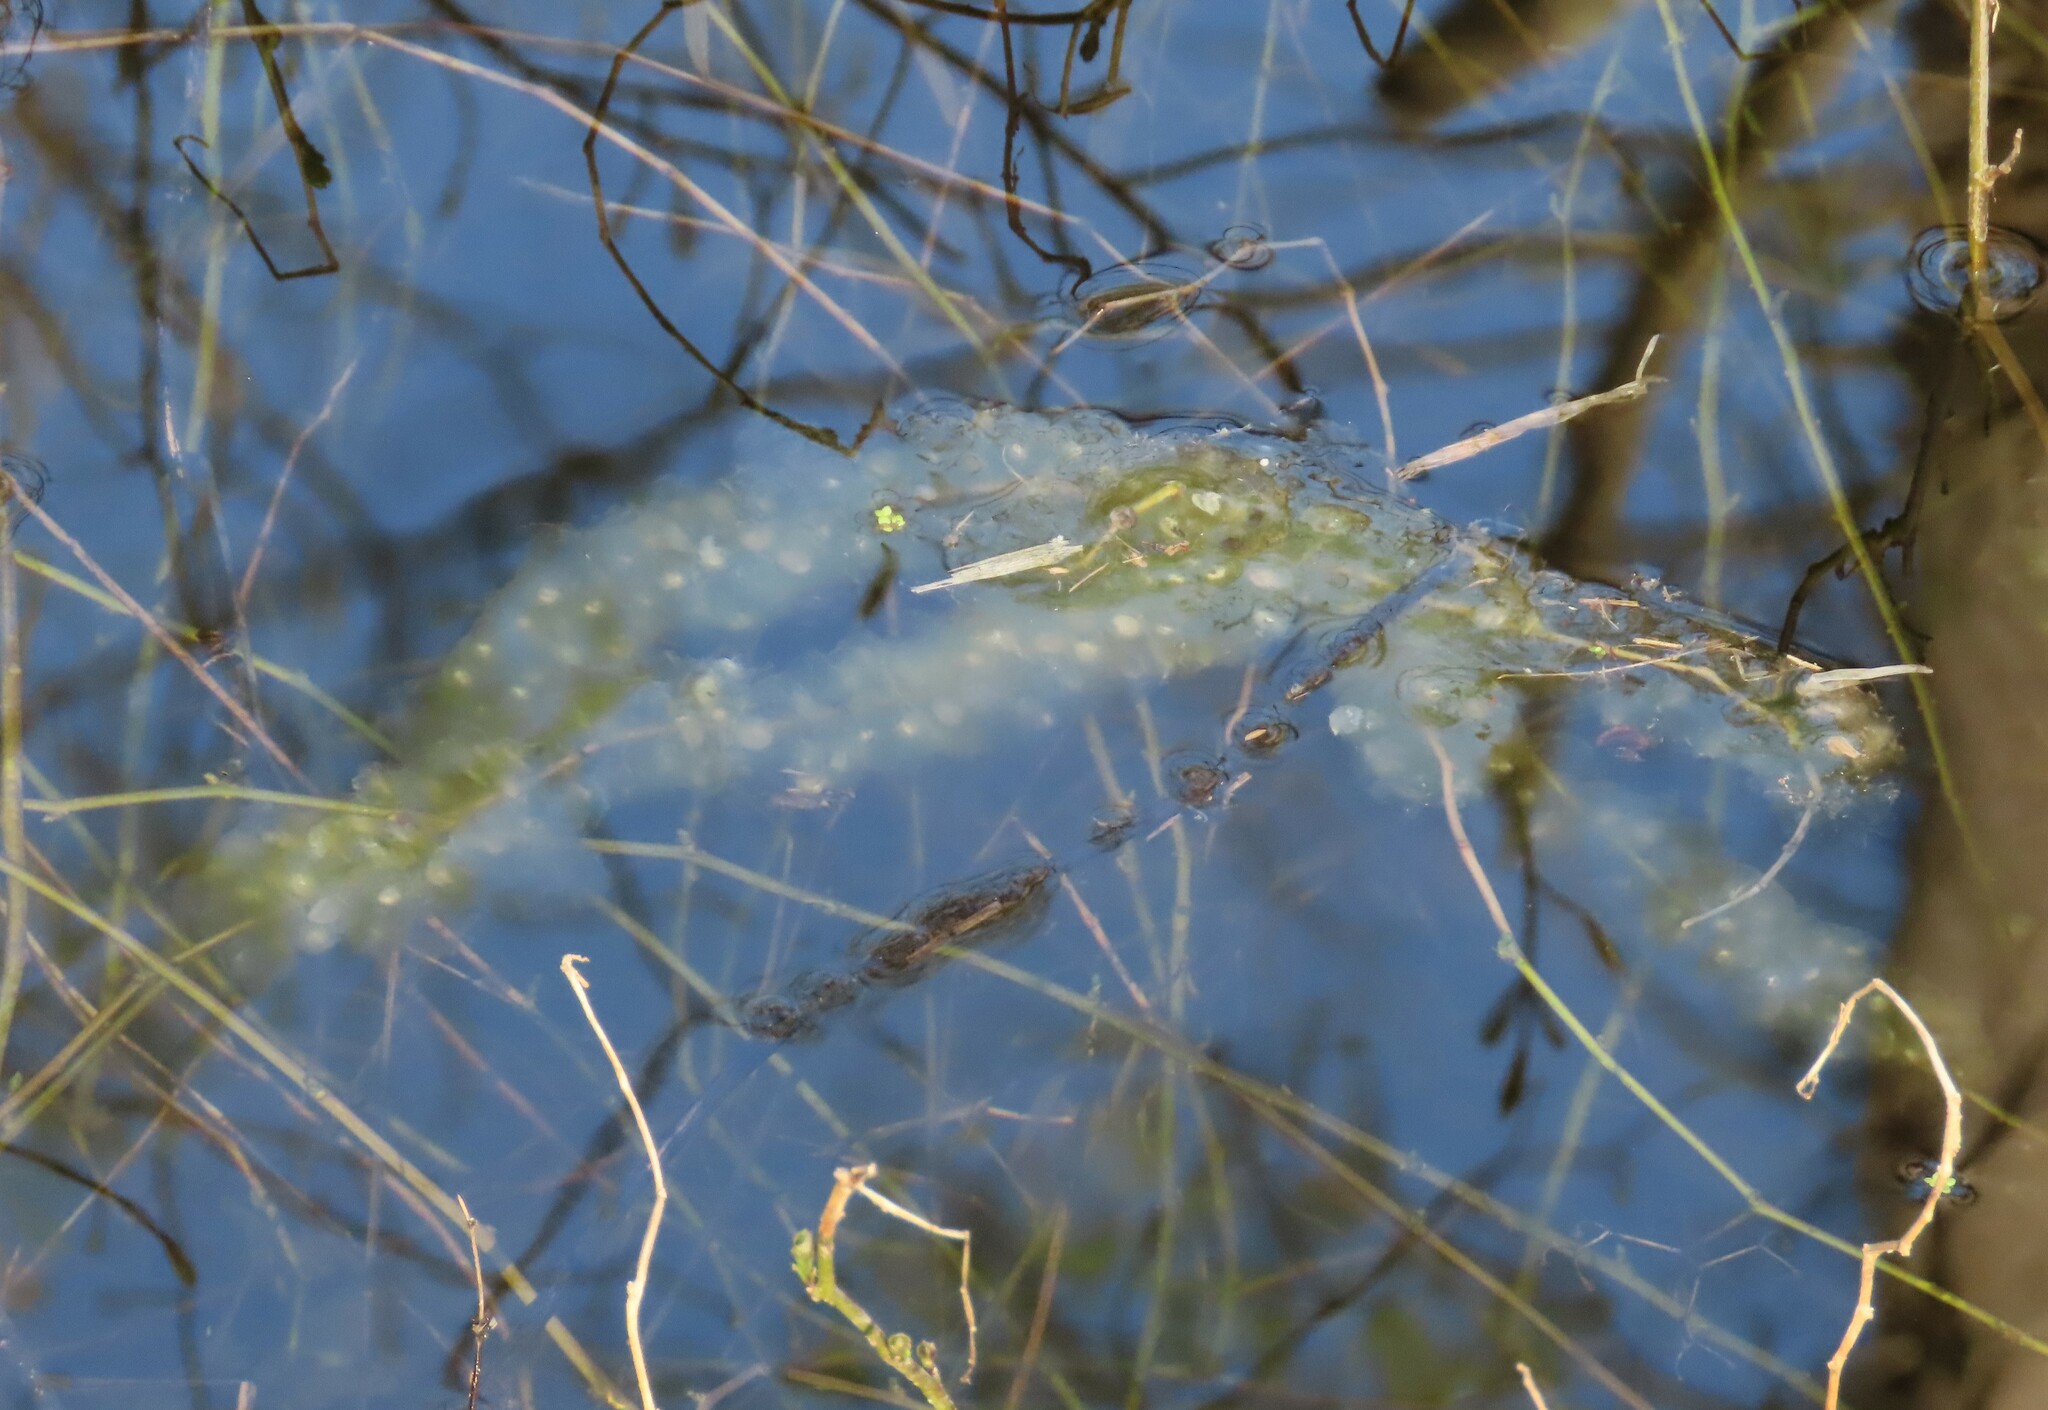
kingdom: Animalia
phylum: Chordata
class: Amphibia
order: Caudata
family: Ambystomatidae
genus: Ambystoma
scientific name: Ambystoma
